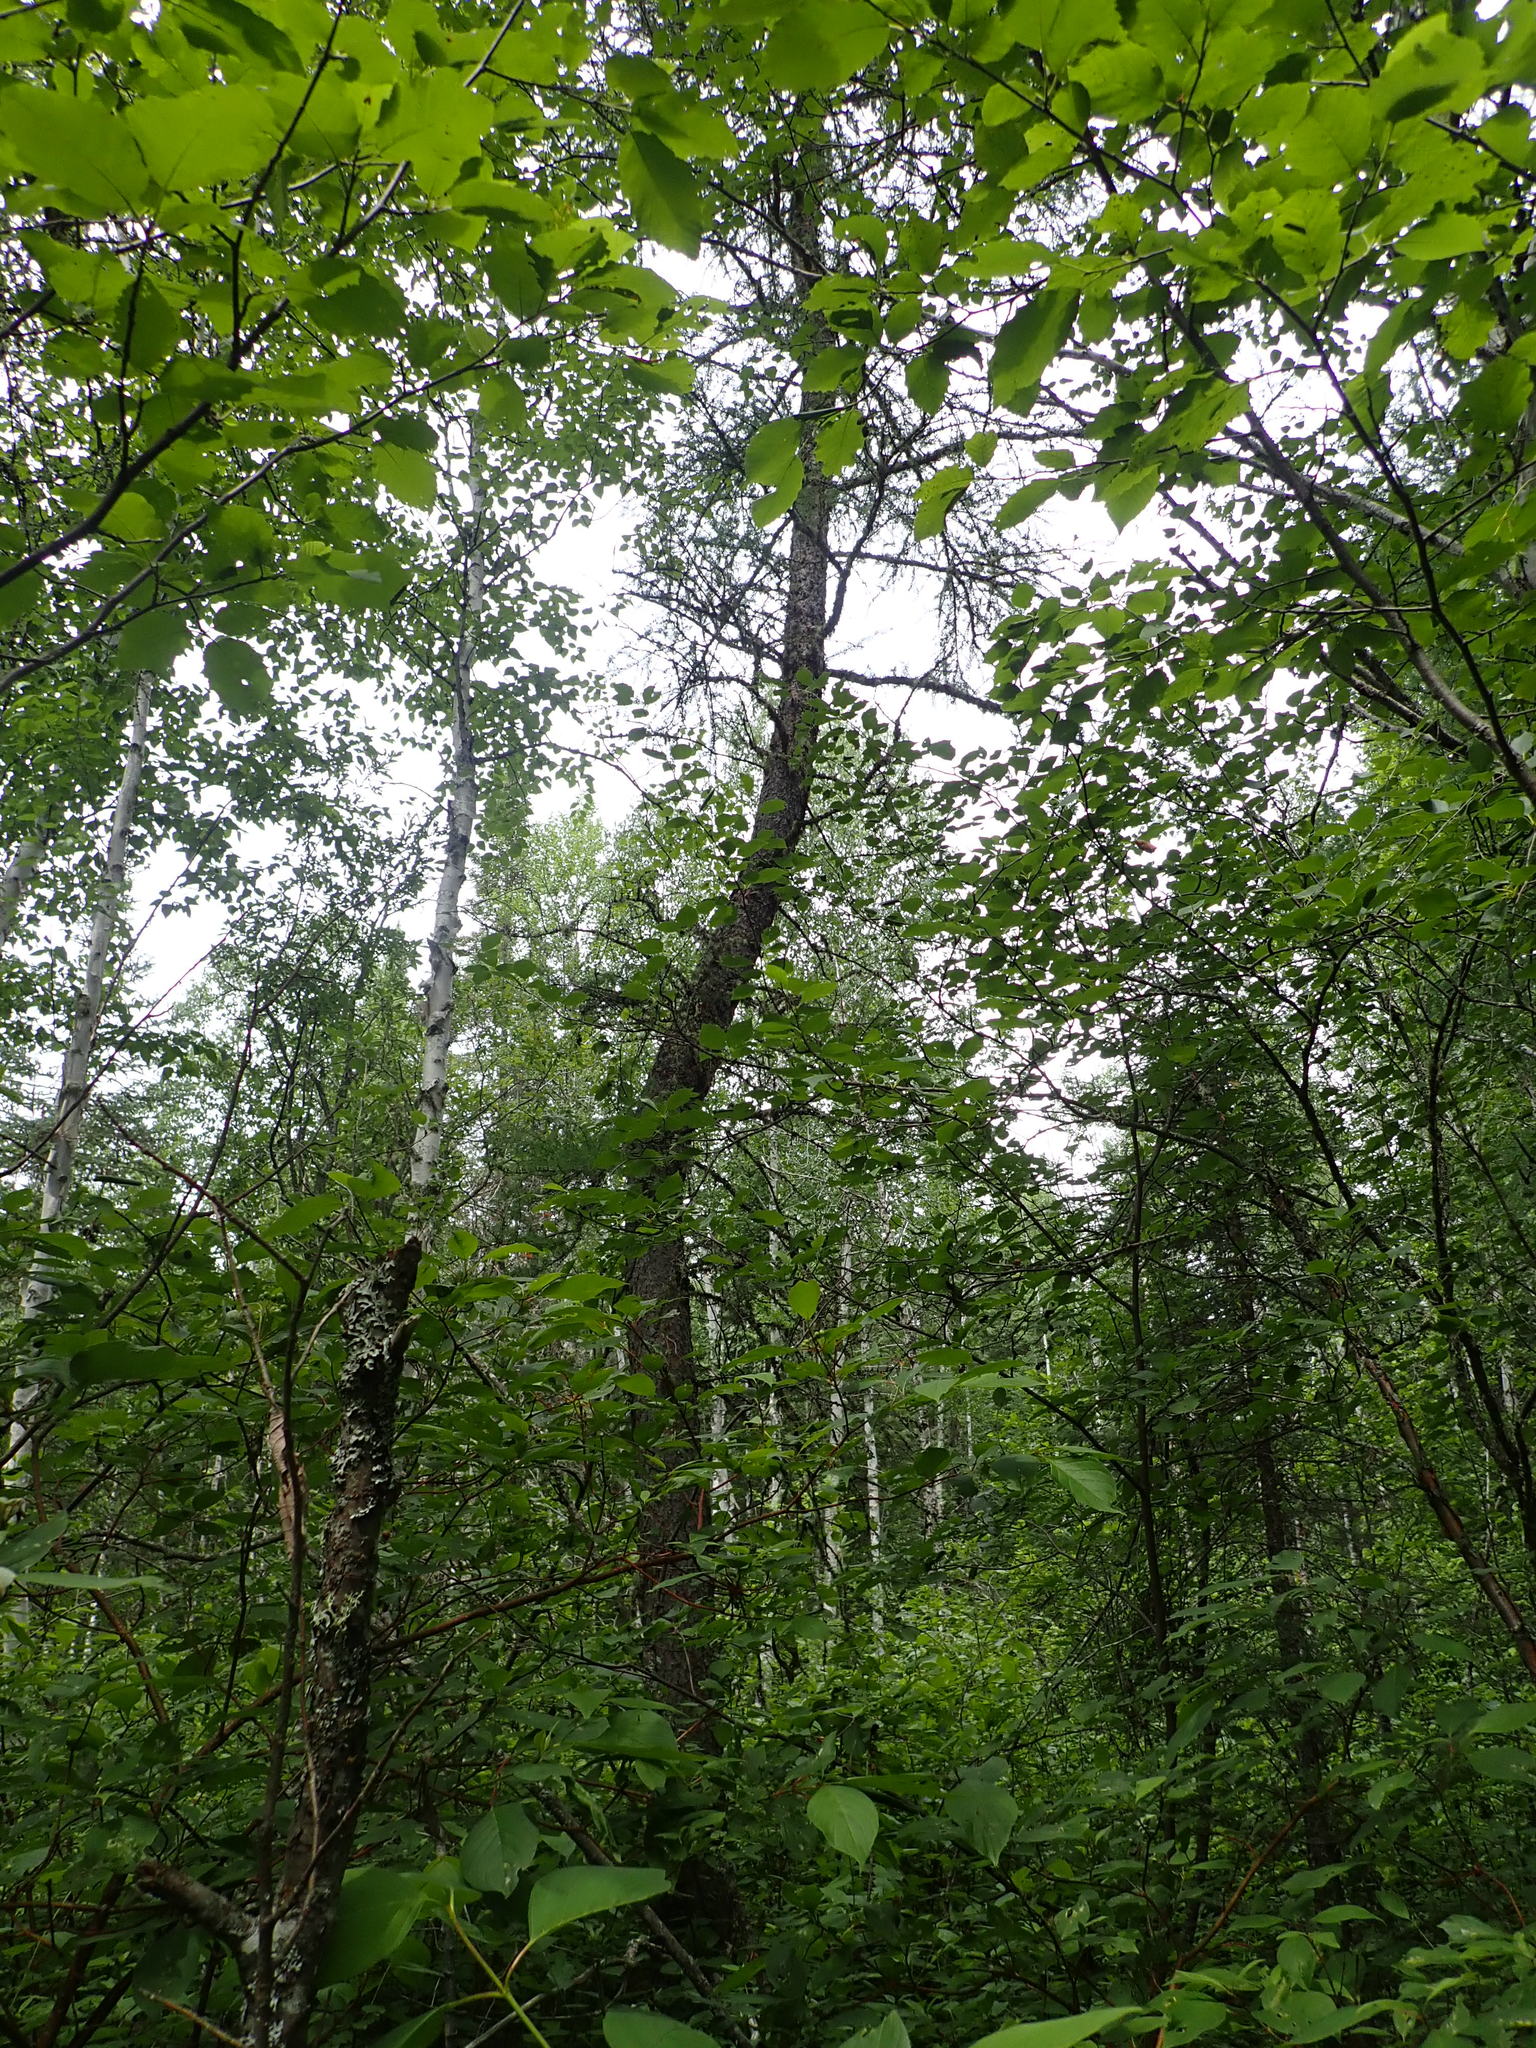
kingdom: Plantae
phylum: Tracheophyta
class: Pinopsida
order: Pinales
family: Pinaceae
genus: Larix
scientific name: Larix laricina
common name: American larch
